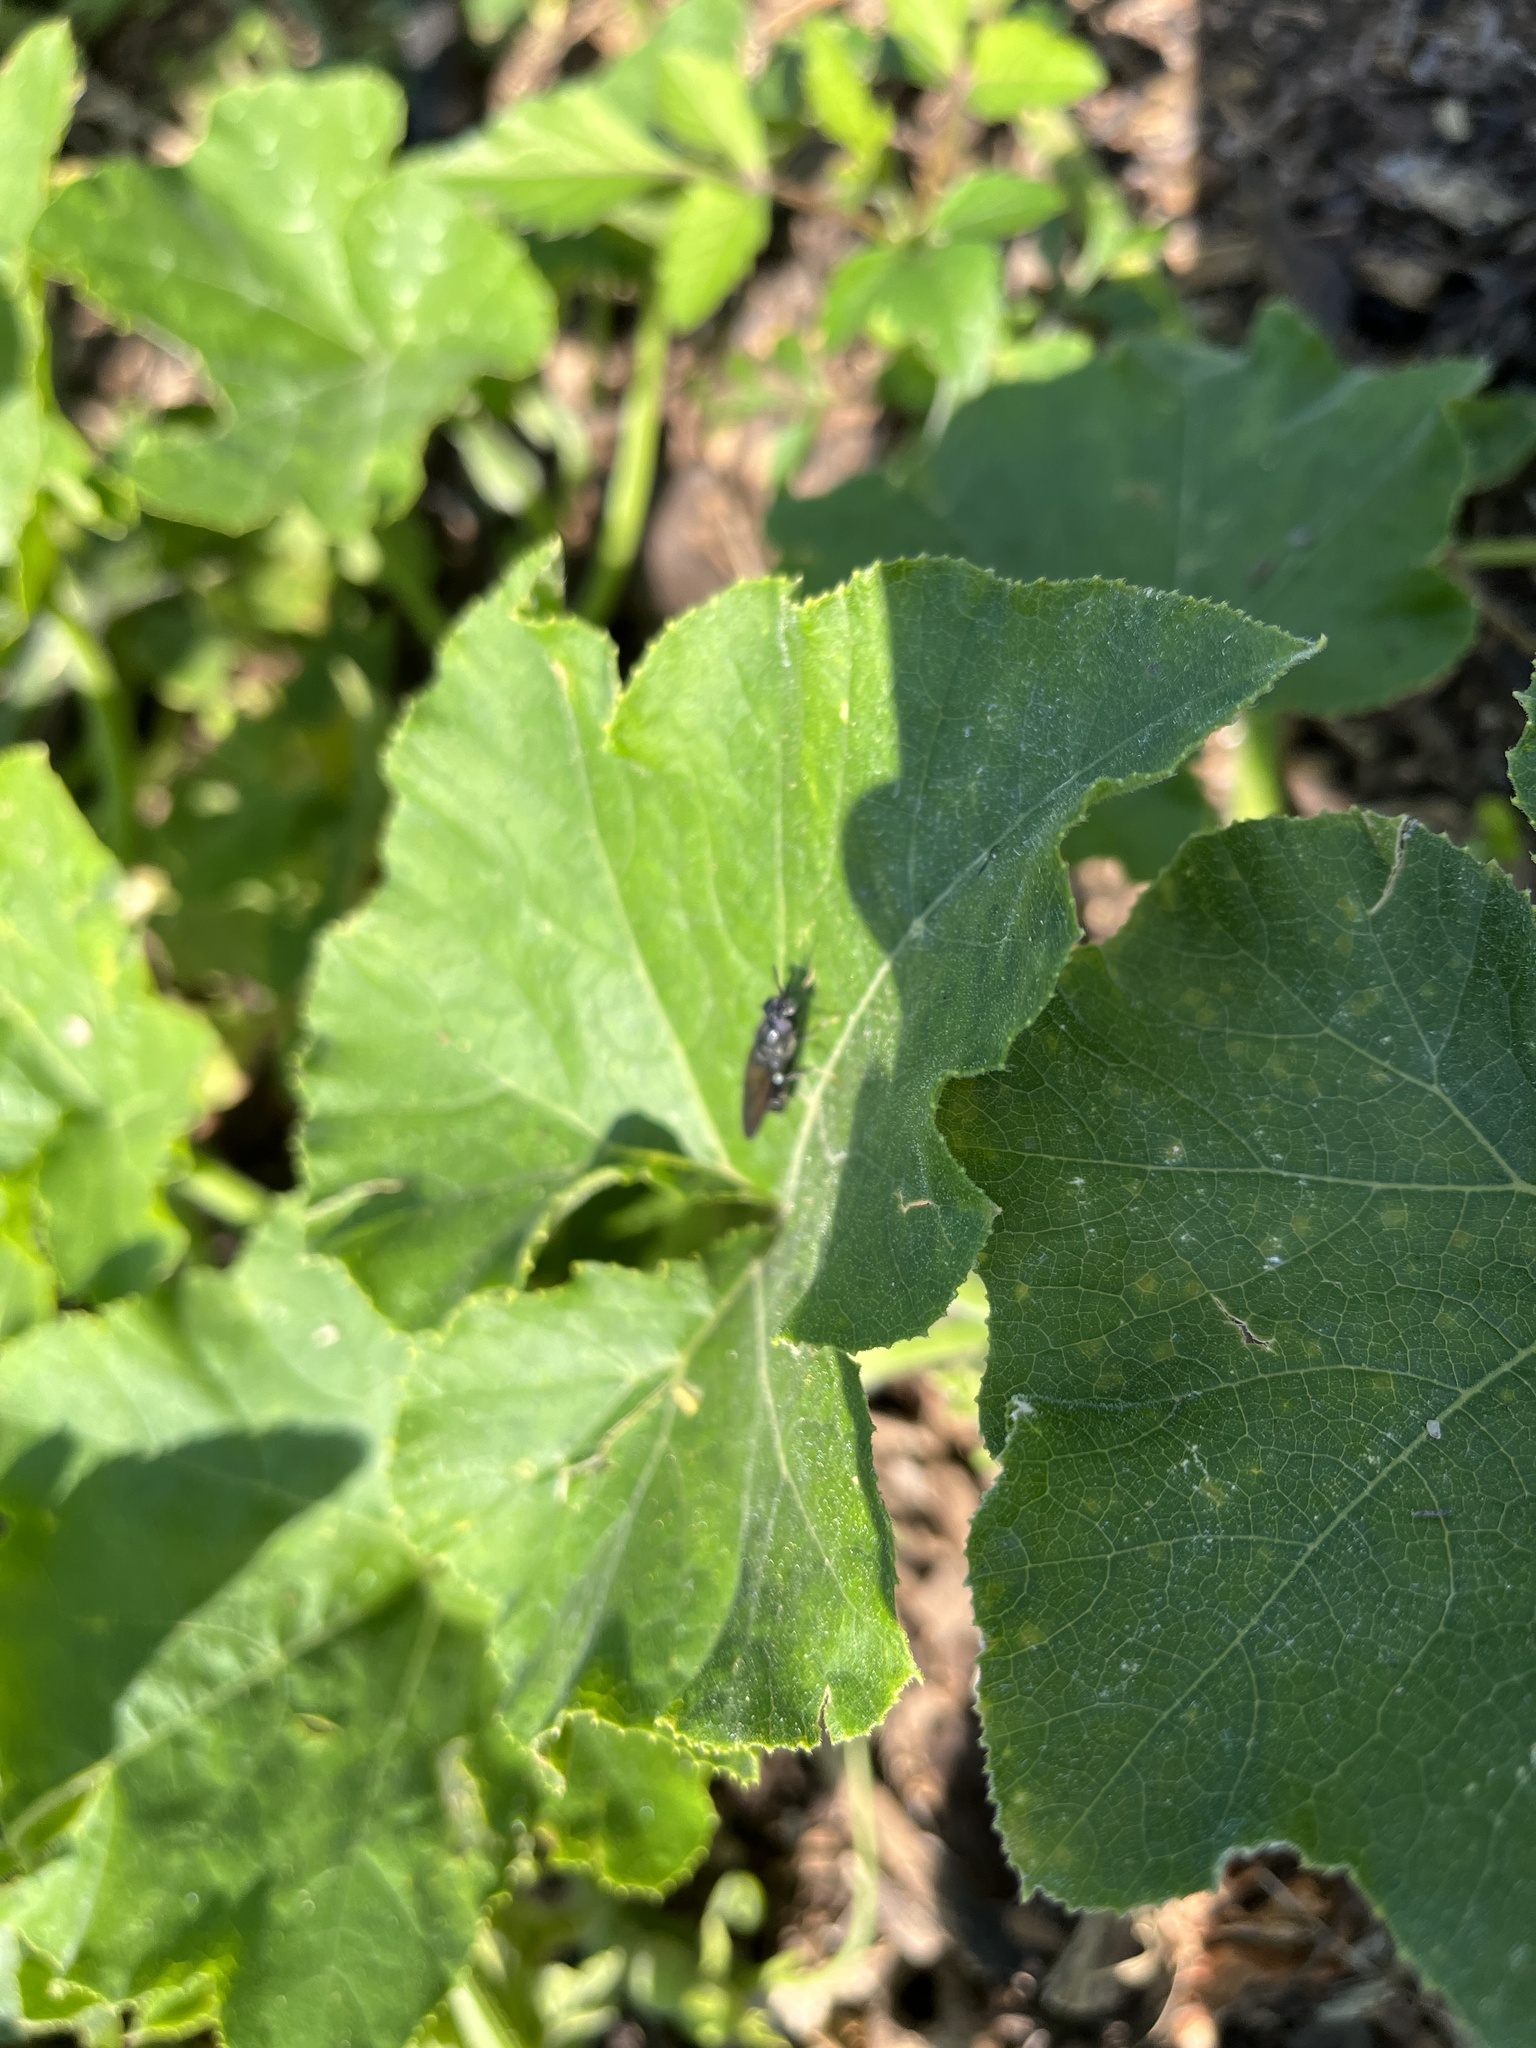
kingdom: Animalia
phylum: Arthropoda
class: Insecta
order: Diptera
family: Stratiomyidae
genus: Hermetia
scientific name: Hermetia illucens
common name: Black soldier fly
